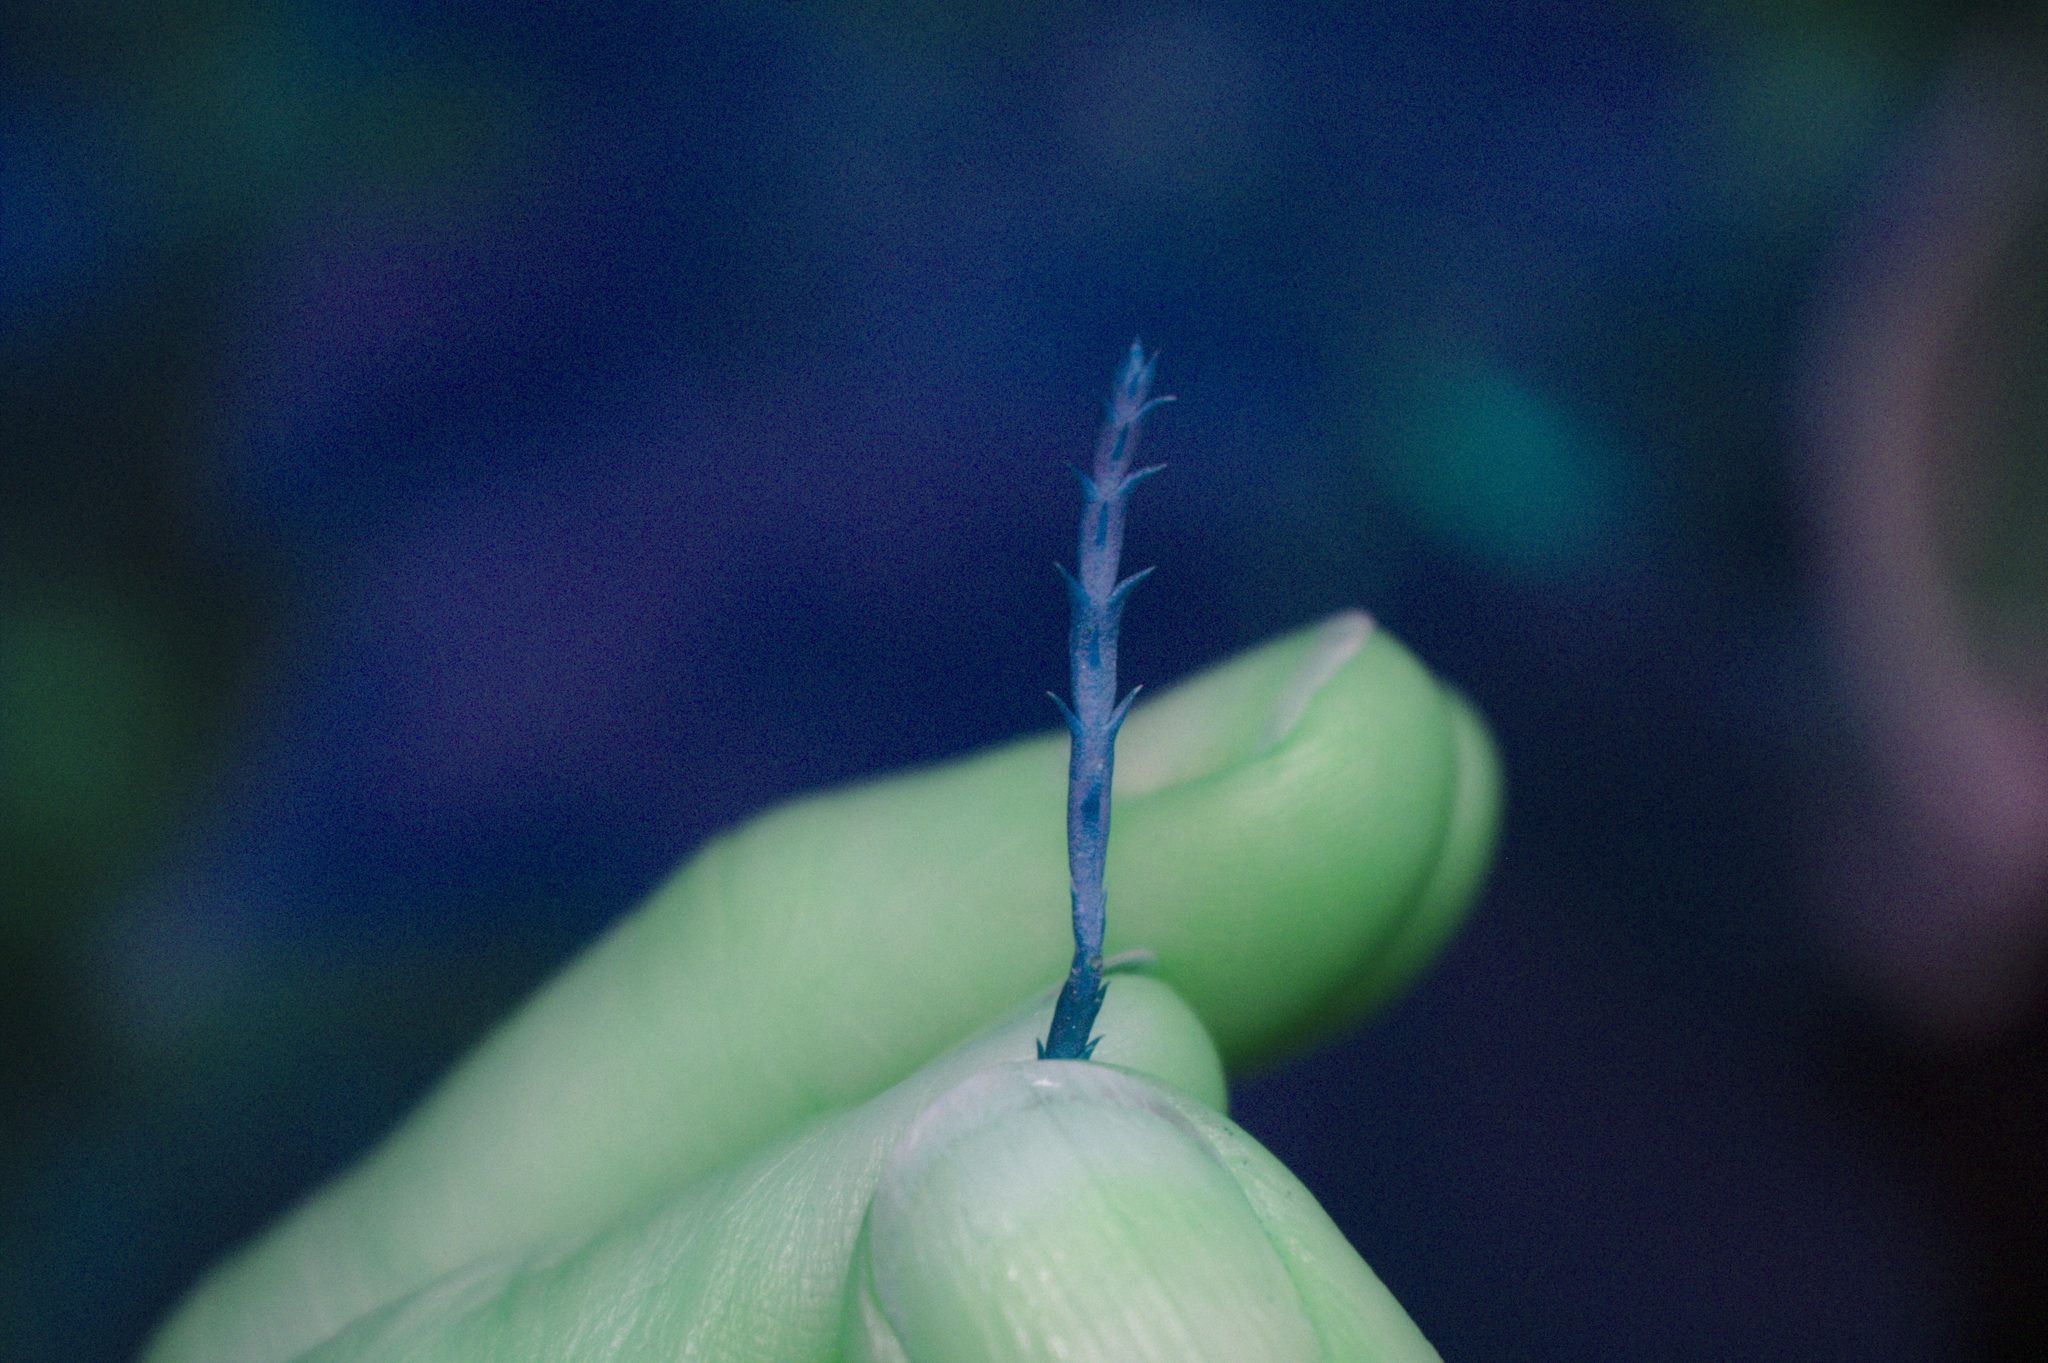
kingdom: Plantae
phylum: Tracheophyta
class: Lycopodiopsida
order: Lycopodiales
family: Lycopodiaceae
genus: Diphasiastrum
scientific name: Diphasiastrum complanatum
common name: Northern running-pine
